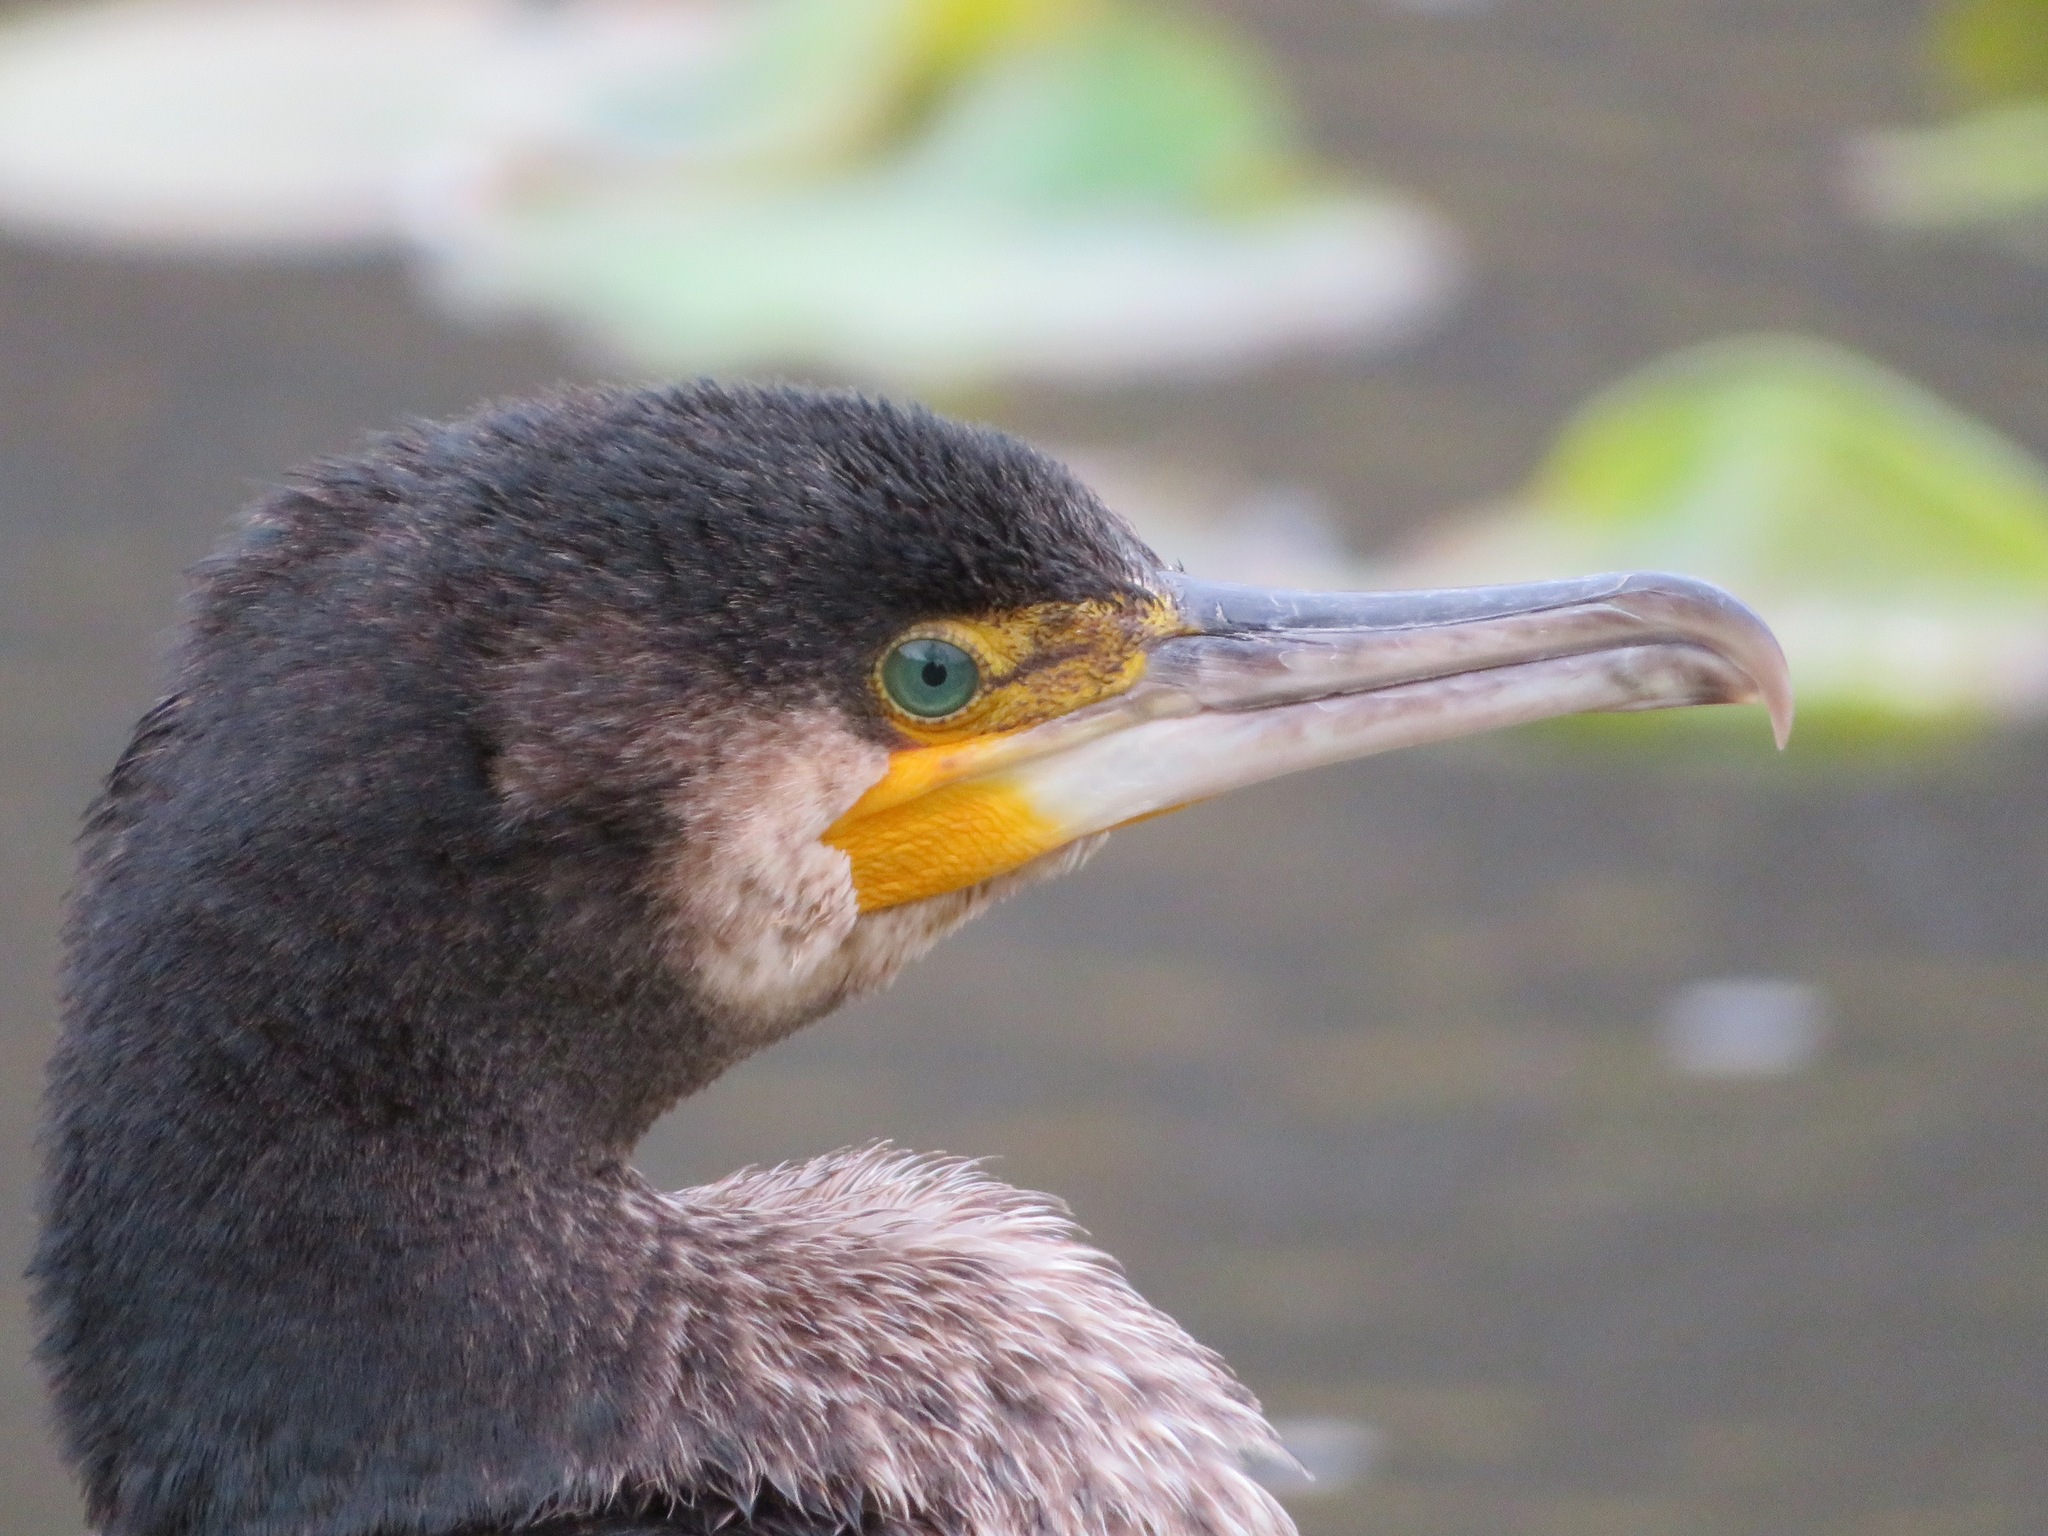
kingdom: Animalia
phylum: Chordata
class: Aves
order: Suliformes
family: Phalacrocoracidae
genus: Phalacrocorax
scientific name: Phalacrocorax carbo
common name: Great cormorant
